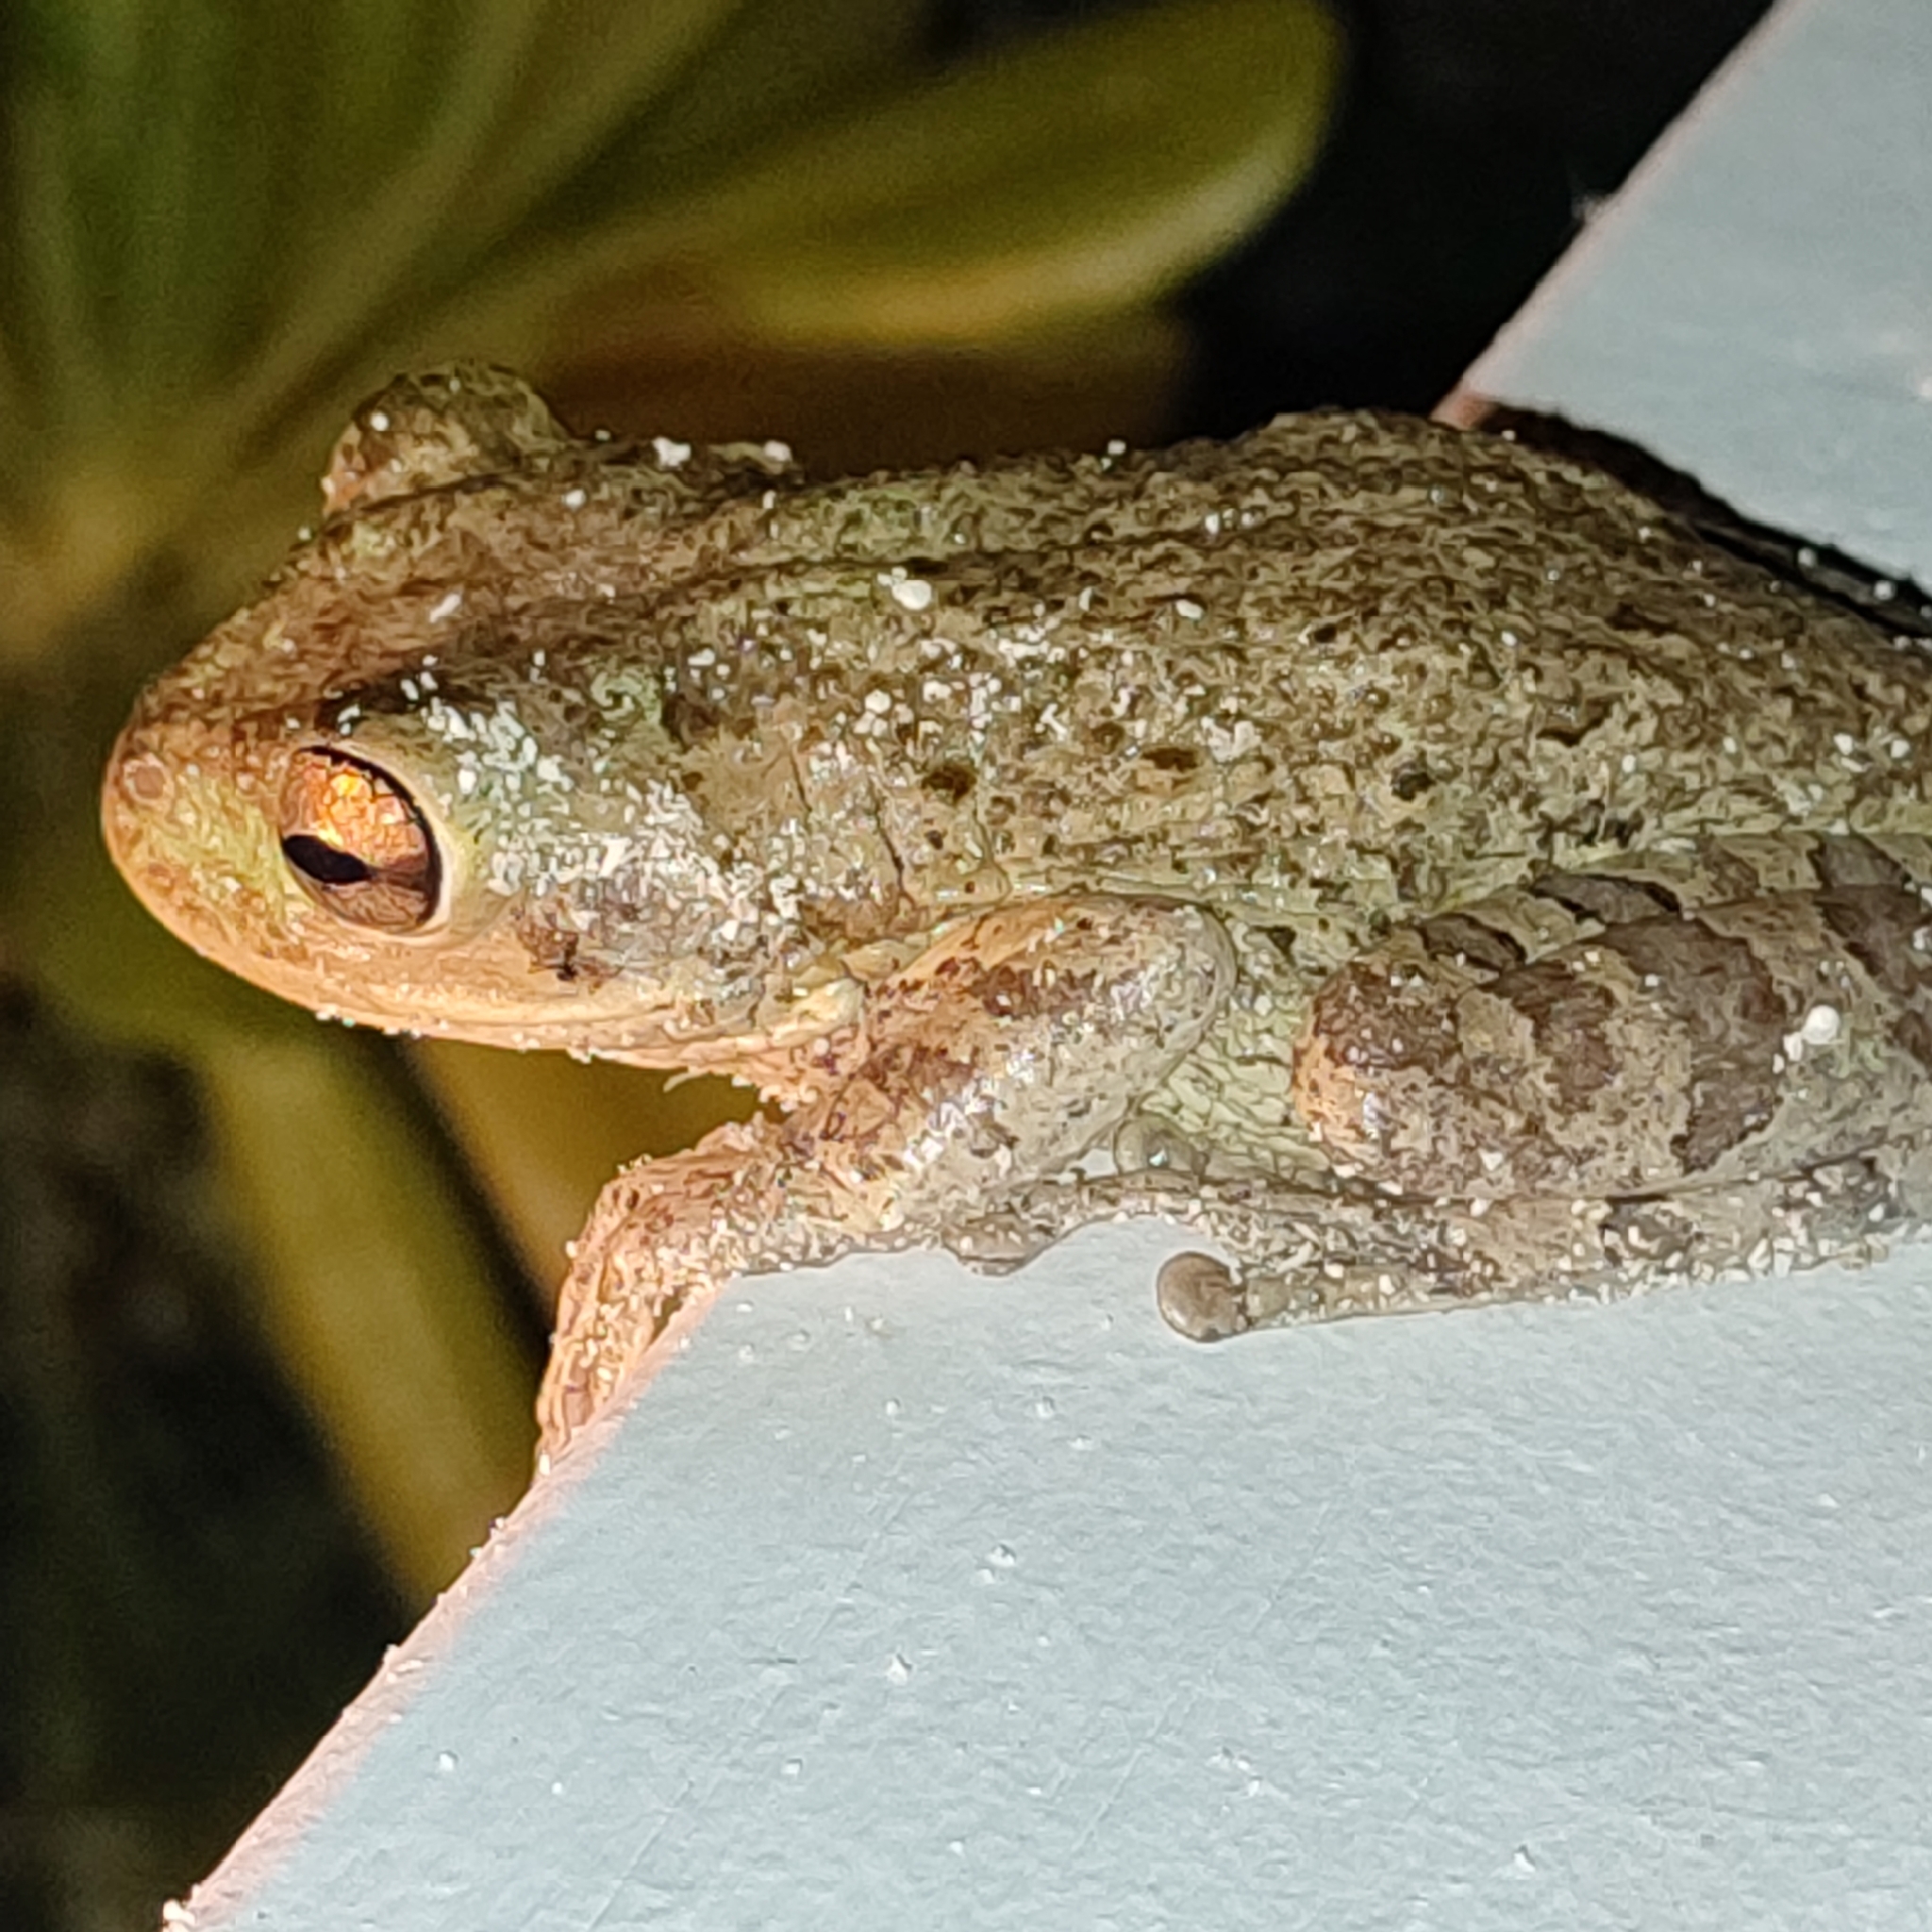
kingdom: Animalia
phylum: Chordata
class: Amphibia
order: Anura
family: Hylidae
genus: Osteopilus
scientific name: Osteopilus septentrionalis
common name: Cuban treefrog
